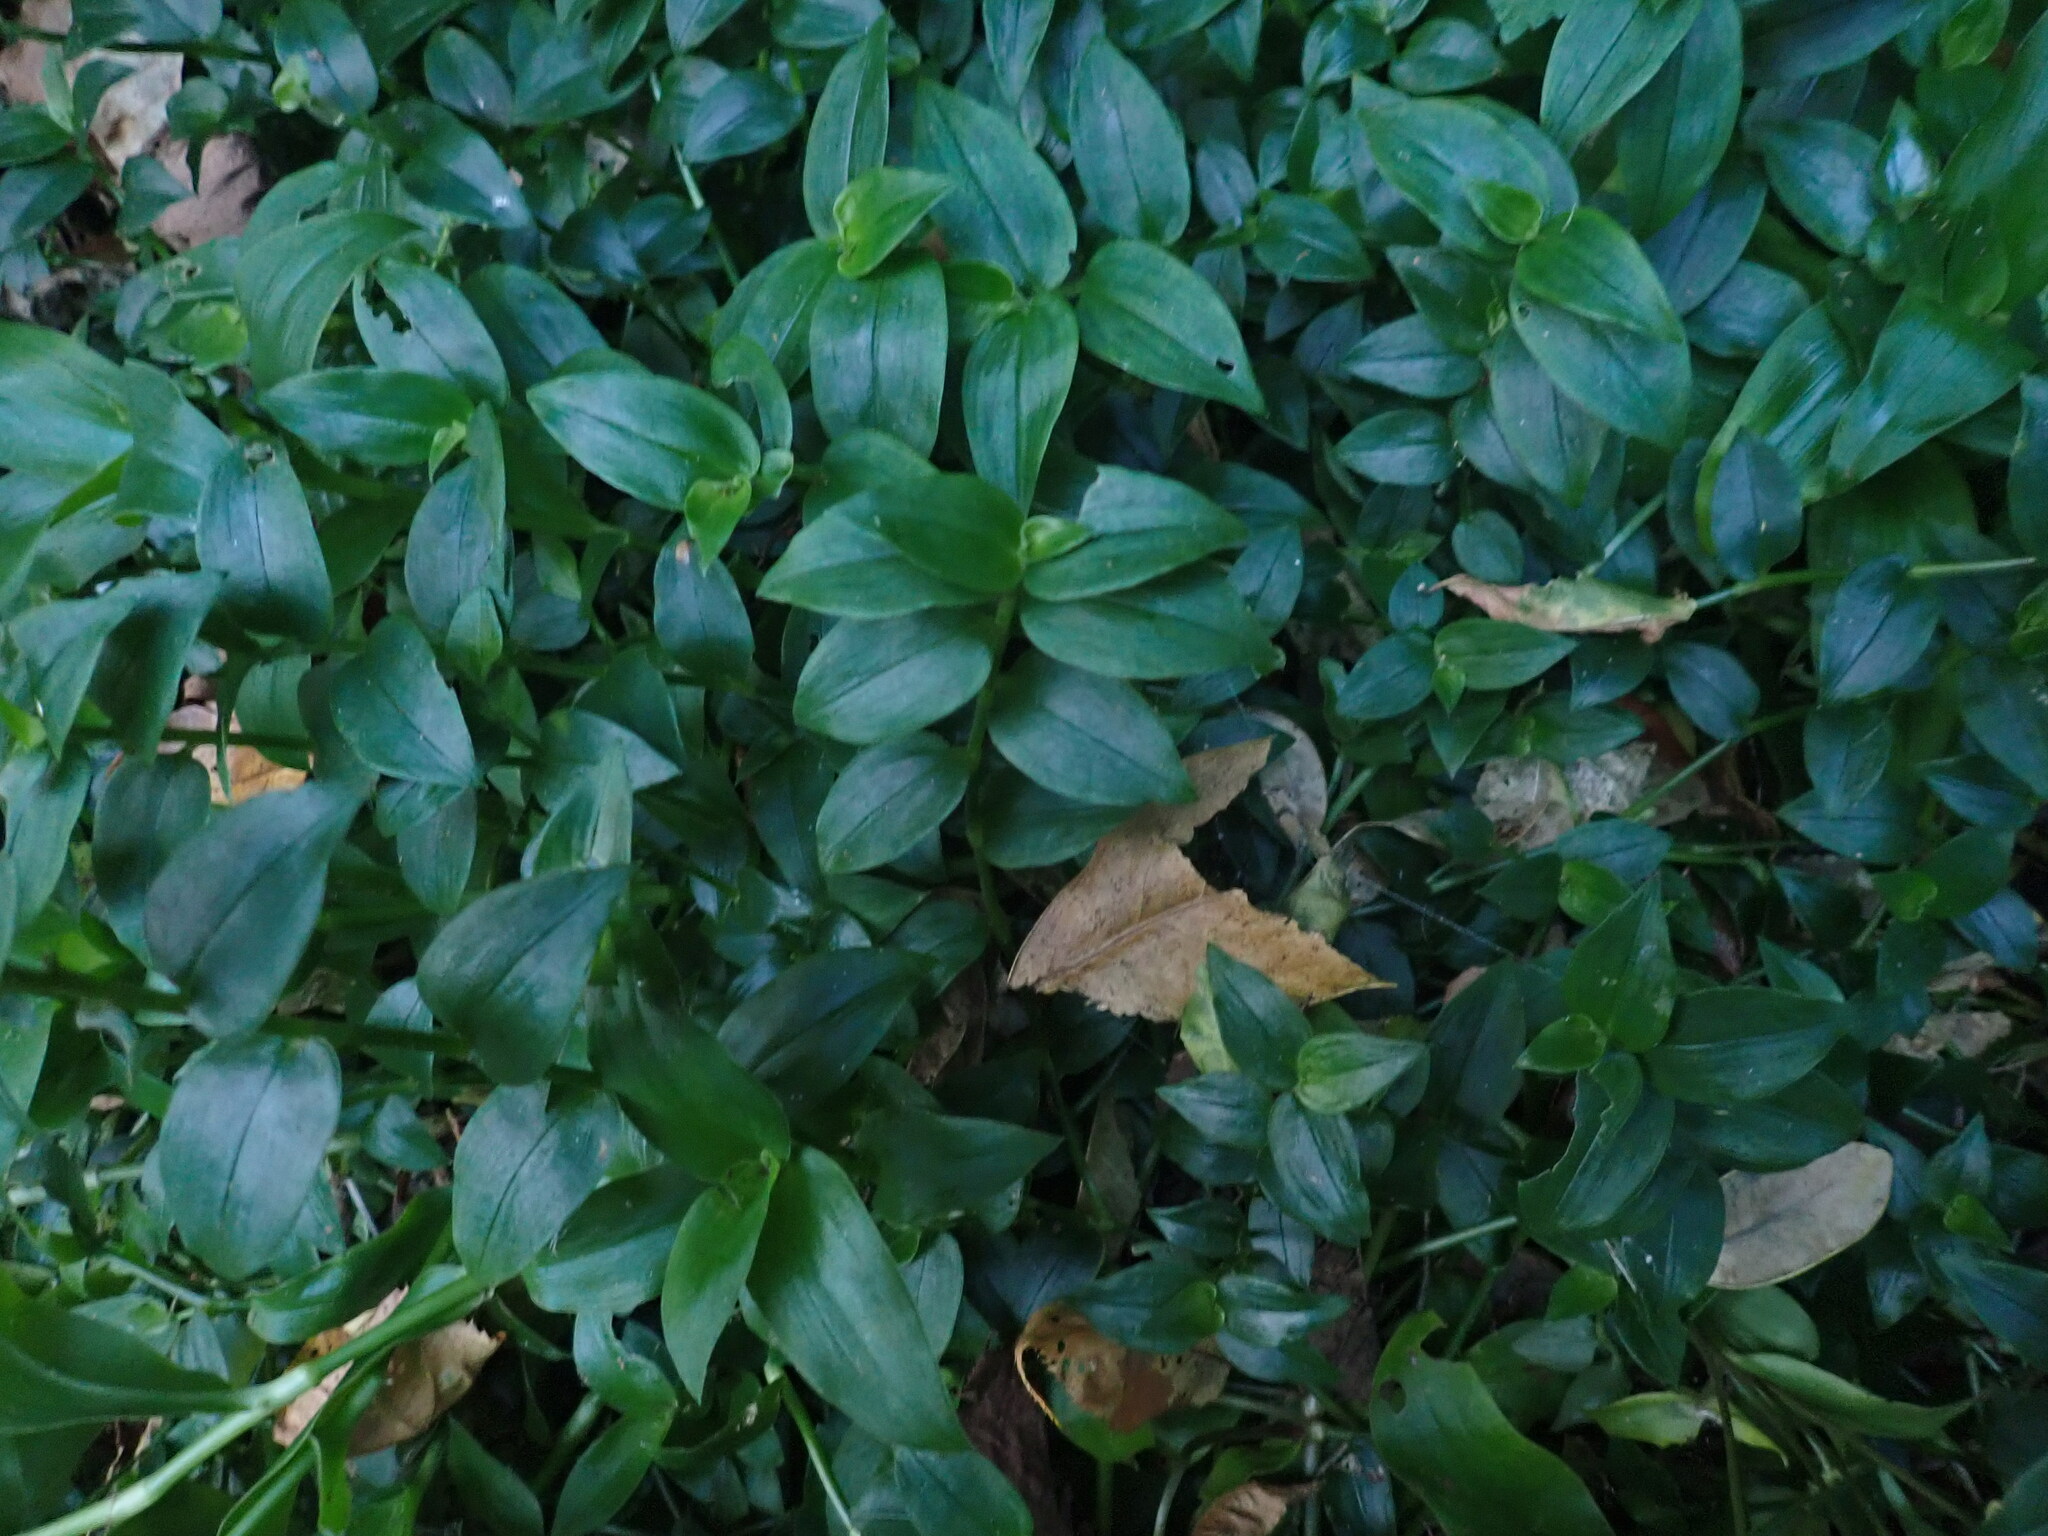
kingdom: Plantae
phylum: Tracheophyta
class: Liliopsida
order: Commelinales
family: Commelinaceae
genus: Tradescantia
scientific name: Tradescantia fluminensis
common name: Wandering-jew
